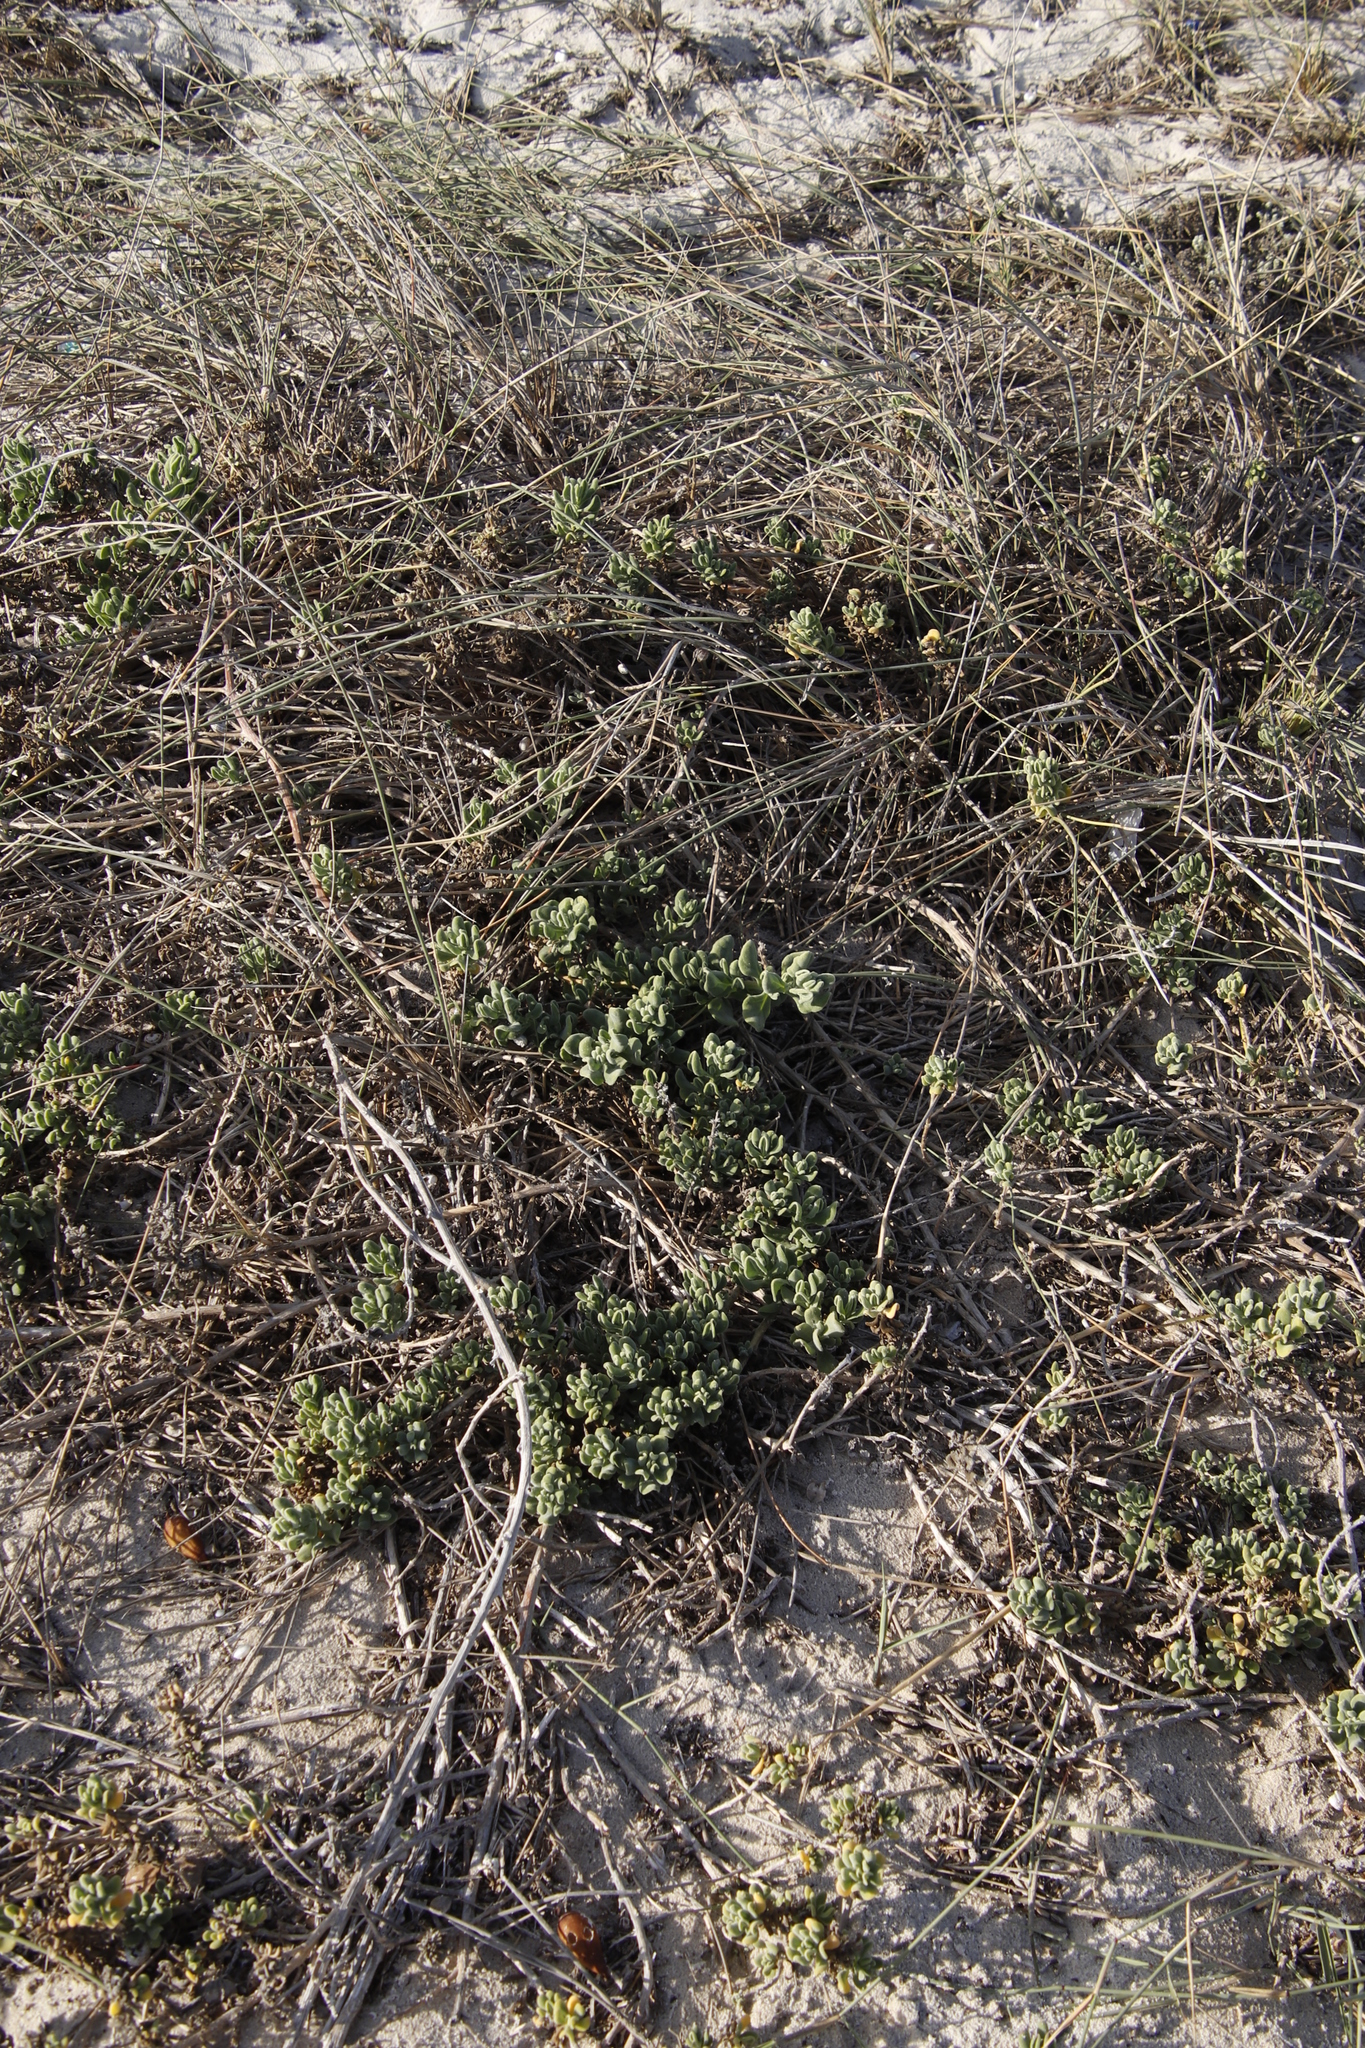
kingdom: Plantae
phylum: Tracheophyta
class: Magnoliopsida
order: Caryophyllales
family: Aizoaceae
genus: Tetragonia
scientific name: Tetragonia decumbens
